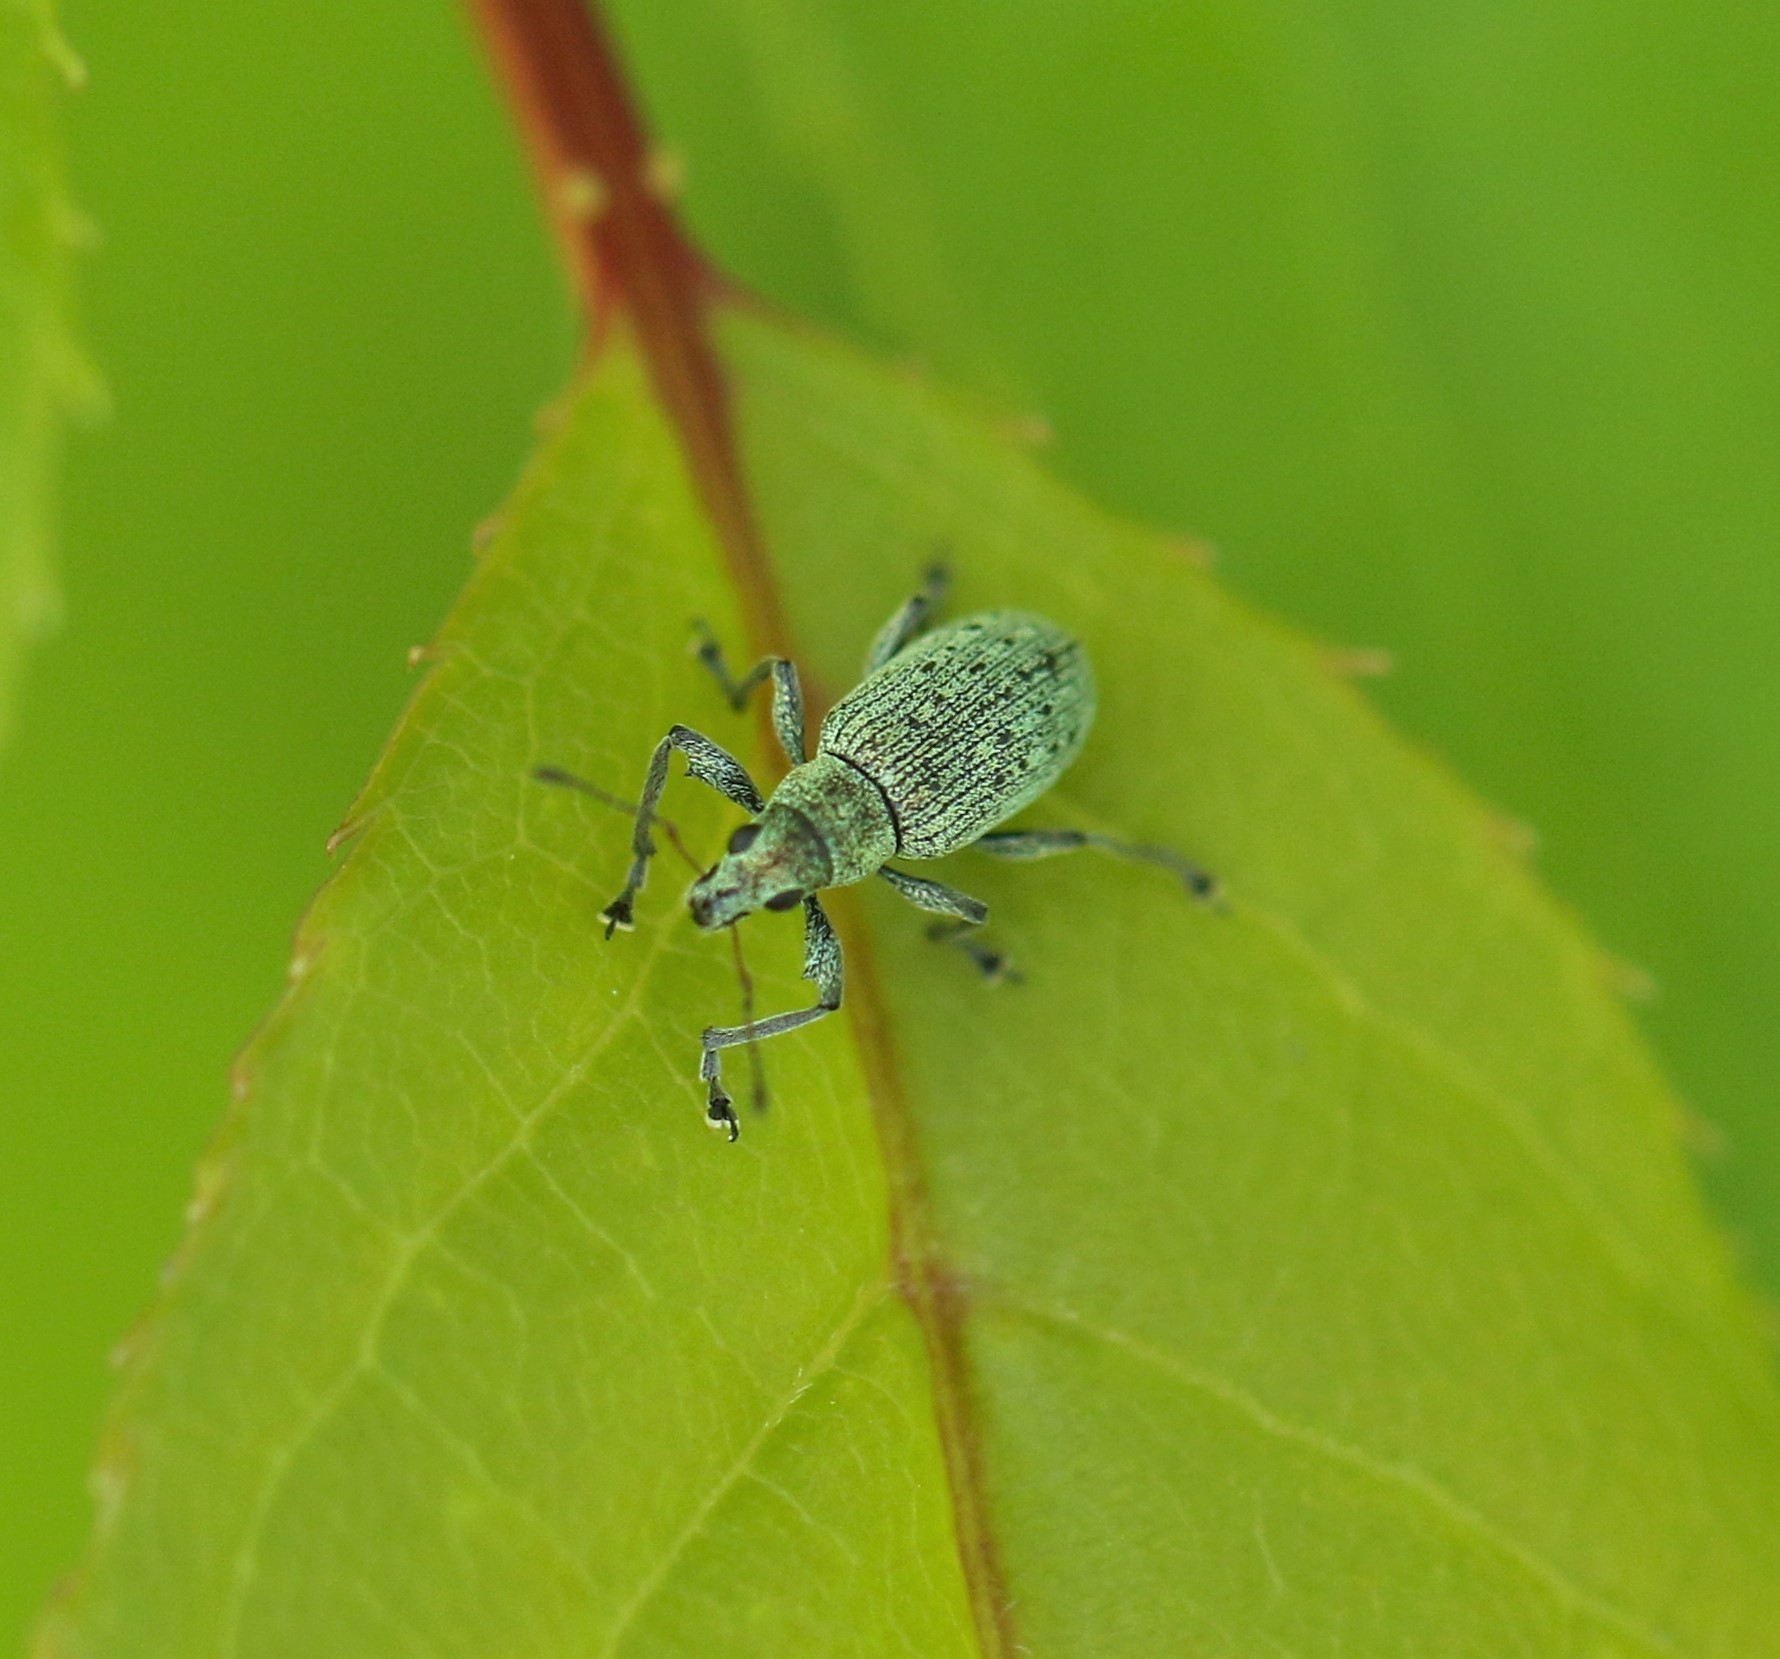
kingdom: Animalia
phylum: Arthropoda
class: Insecta
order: Coleoptera
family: Curculionidae
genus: Polydrusus
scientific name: Polydrusus cervinus
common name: Weevil
